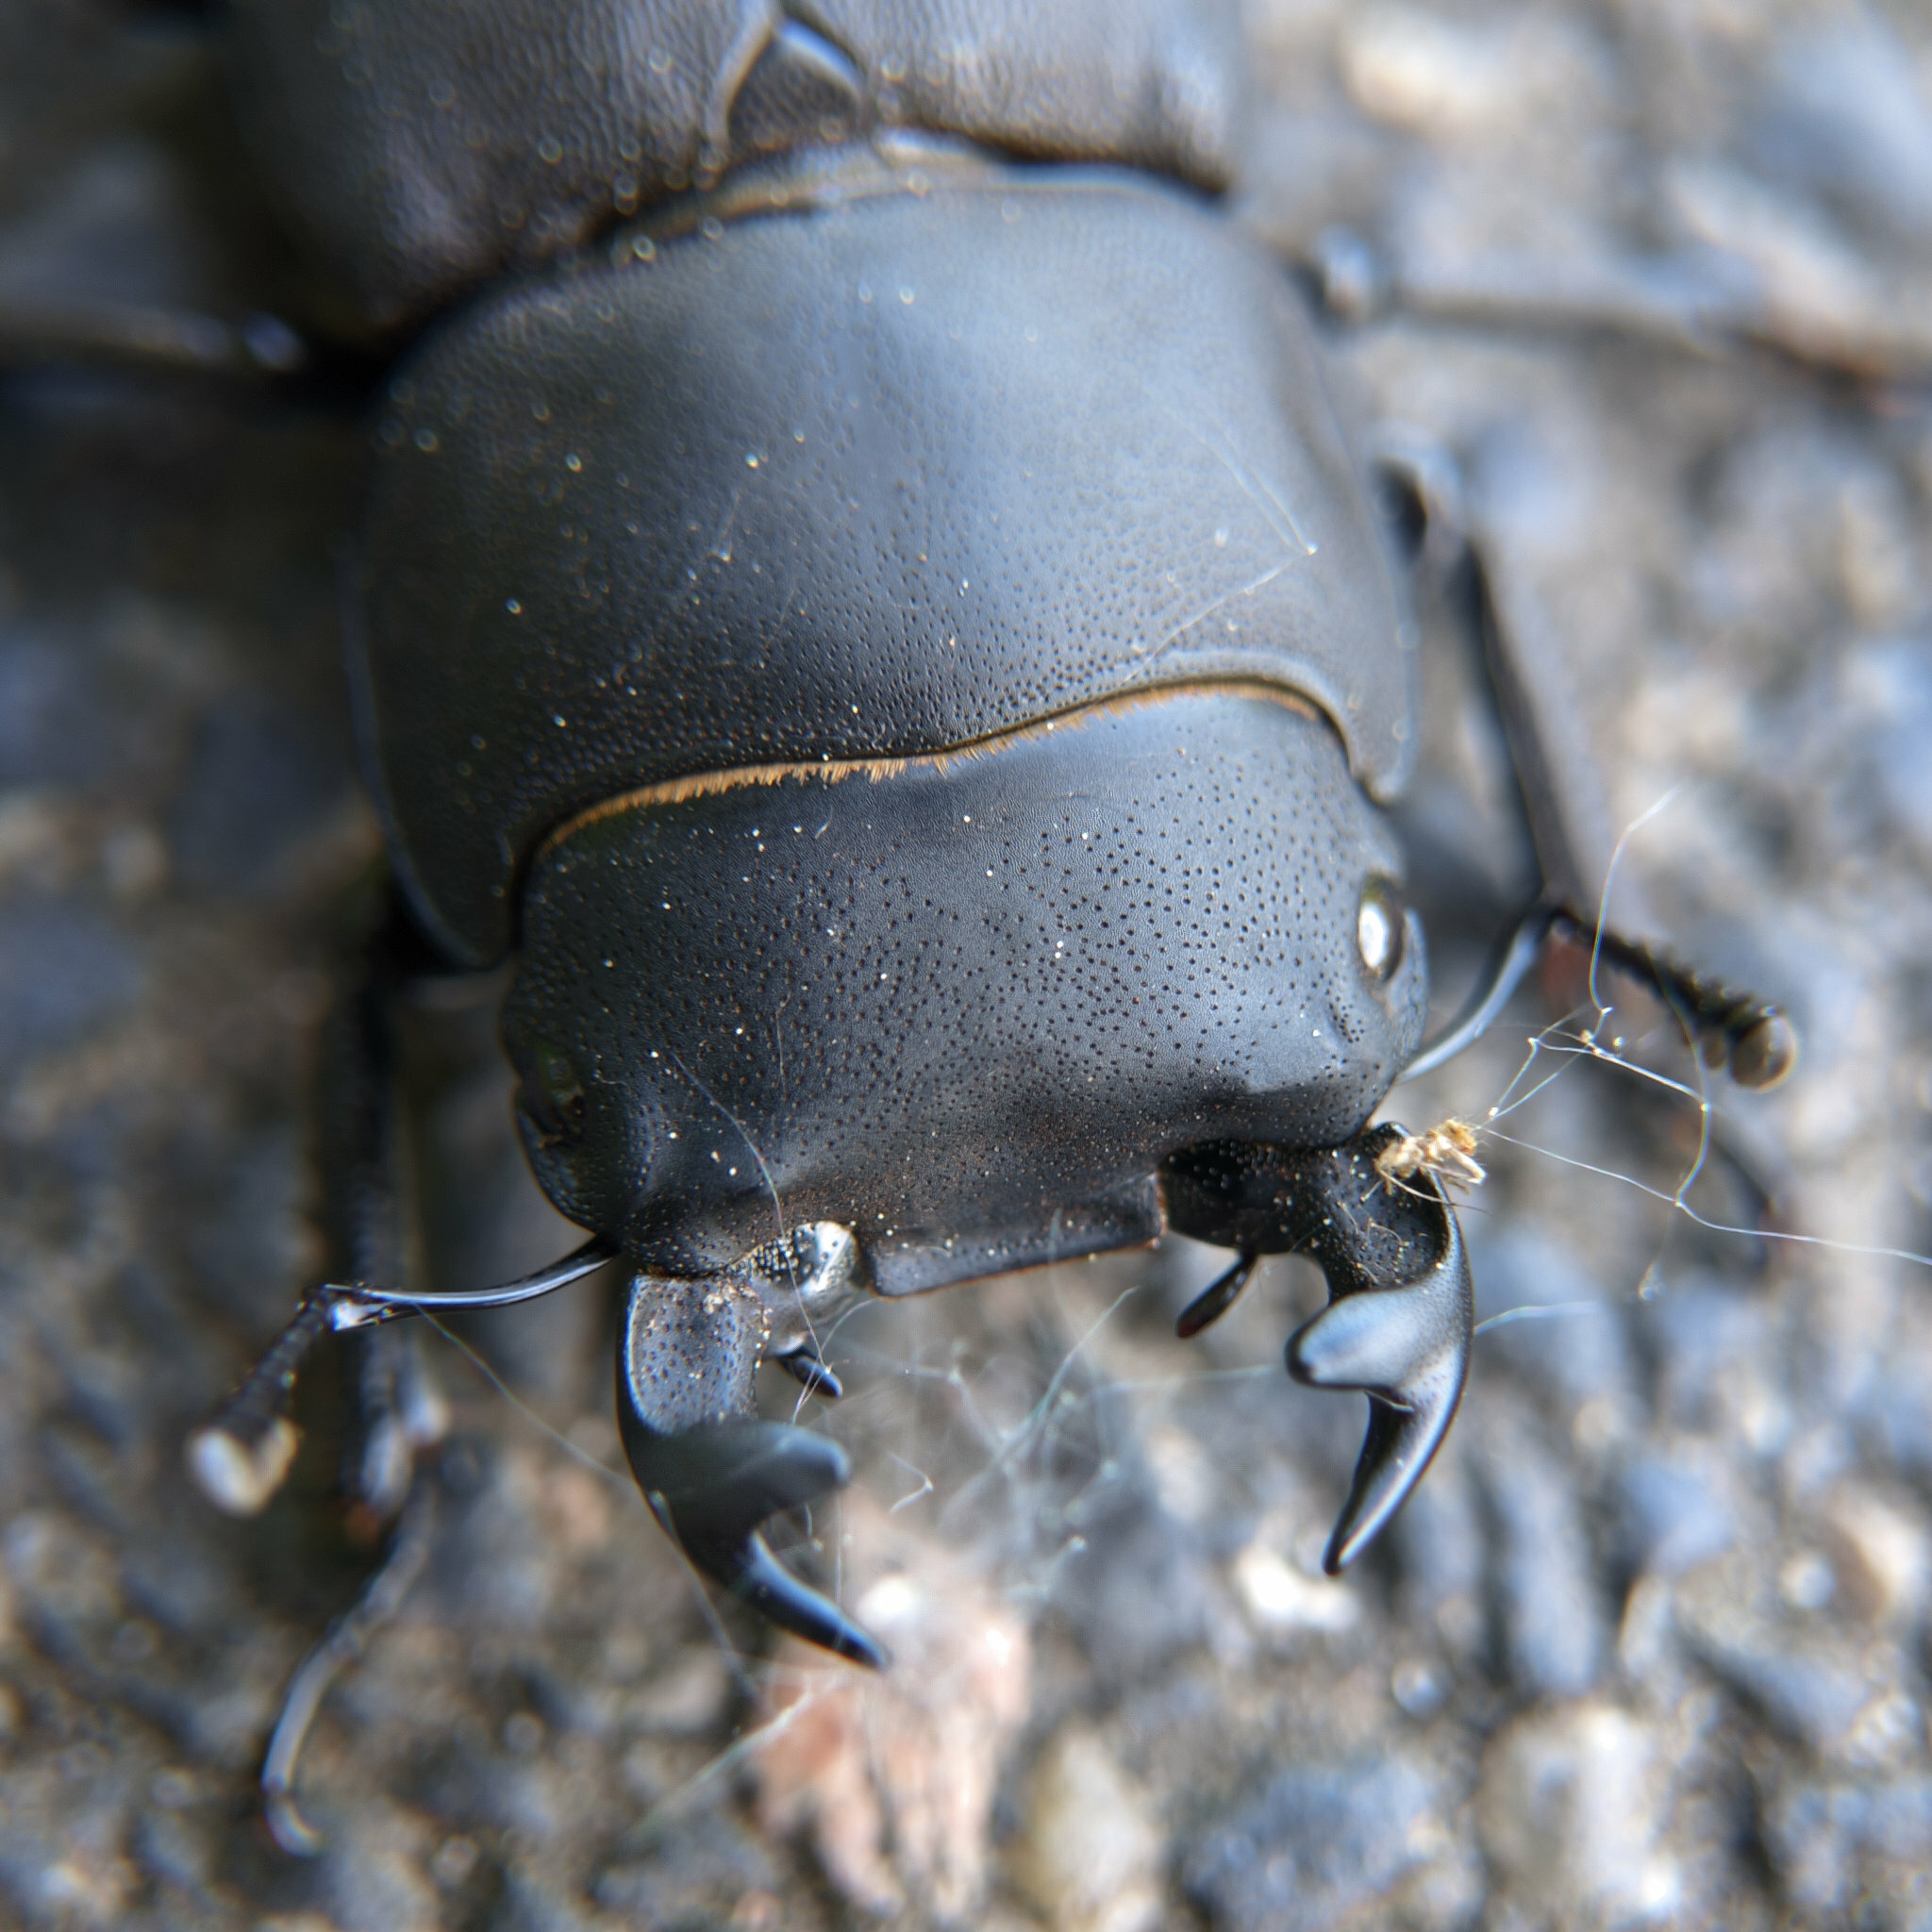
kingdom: Animalia
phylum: Arthropoda
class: Insecta
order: Coleoptera
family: Lucanidae
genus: Dorcus
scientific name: Dorcus parallelipipedus
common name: Lesser stag beetle
